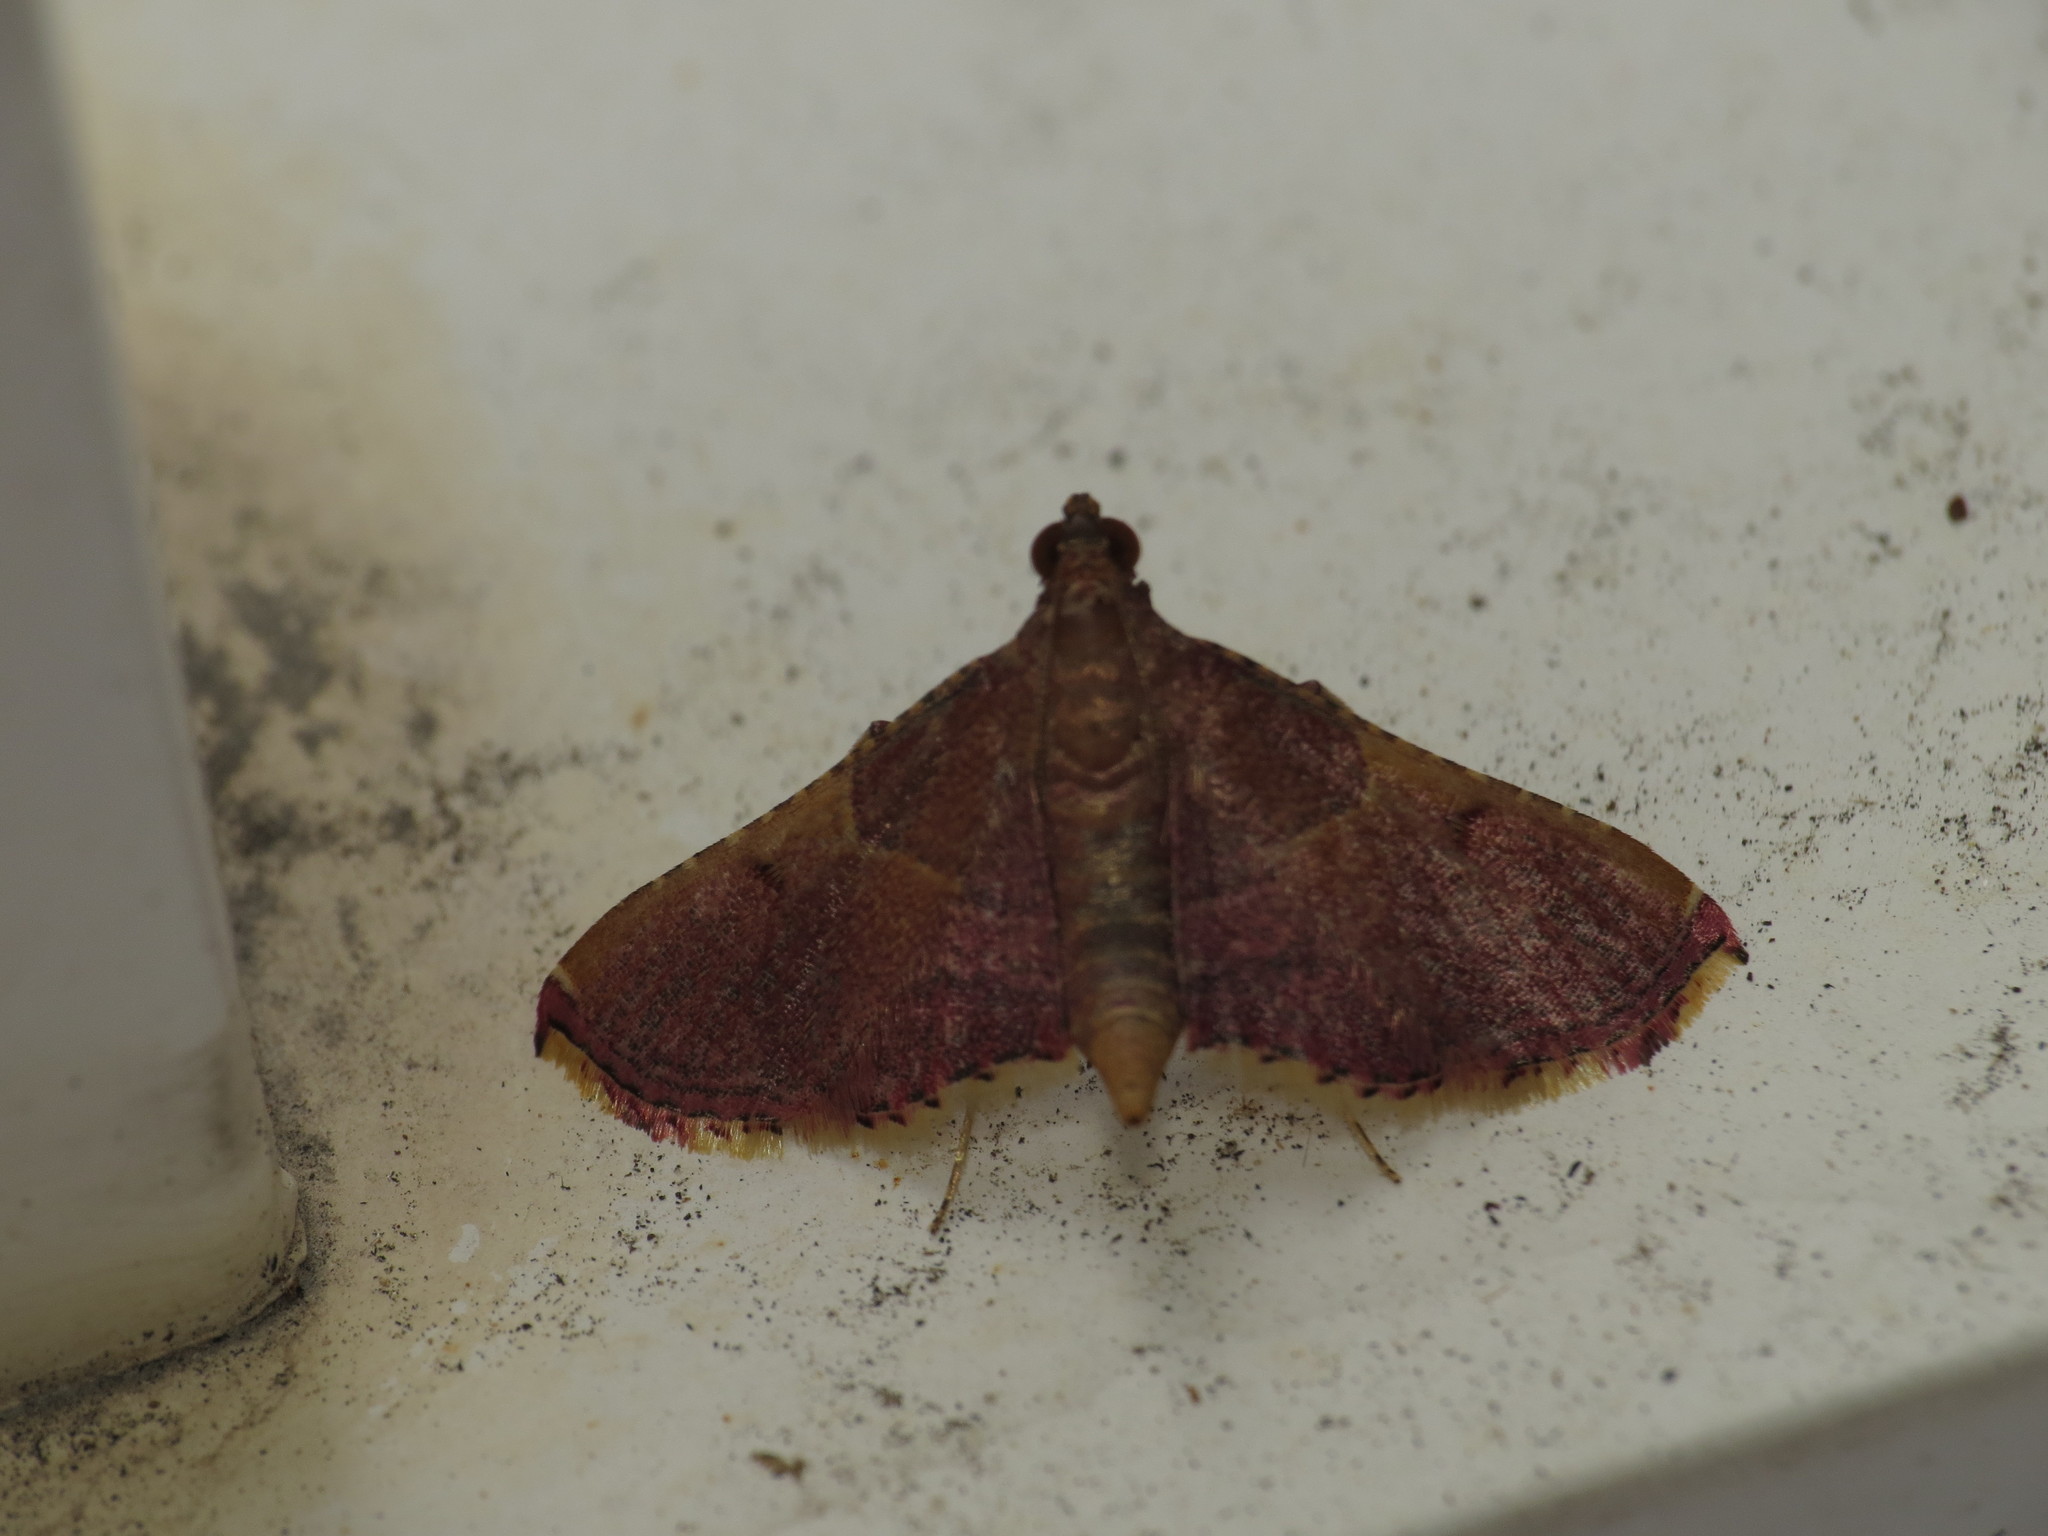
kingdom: Animalia
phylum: Arthropoda
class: Insecta
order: Lepidoptera
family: Pyralidae
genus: Endotricha
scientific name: Endotricha mesenterialis
